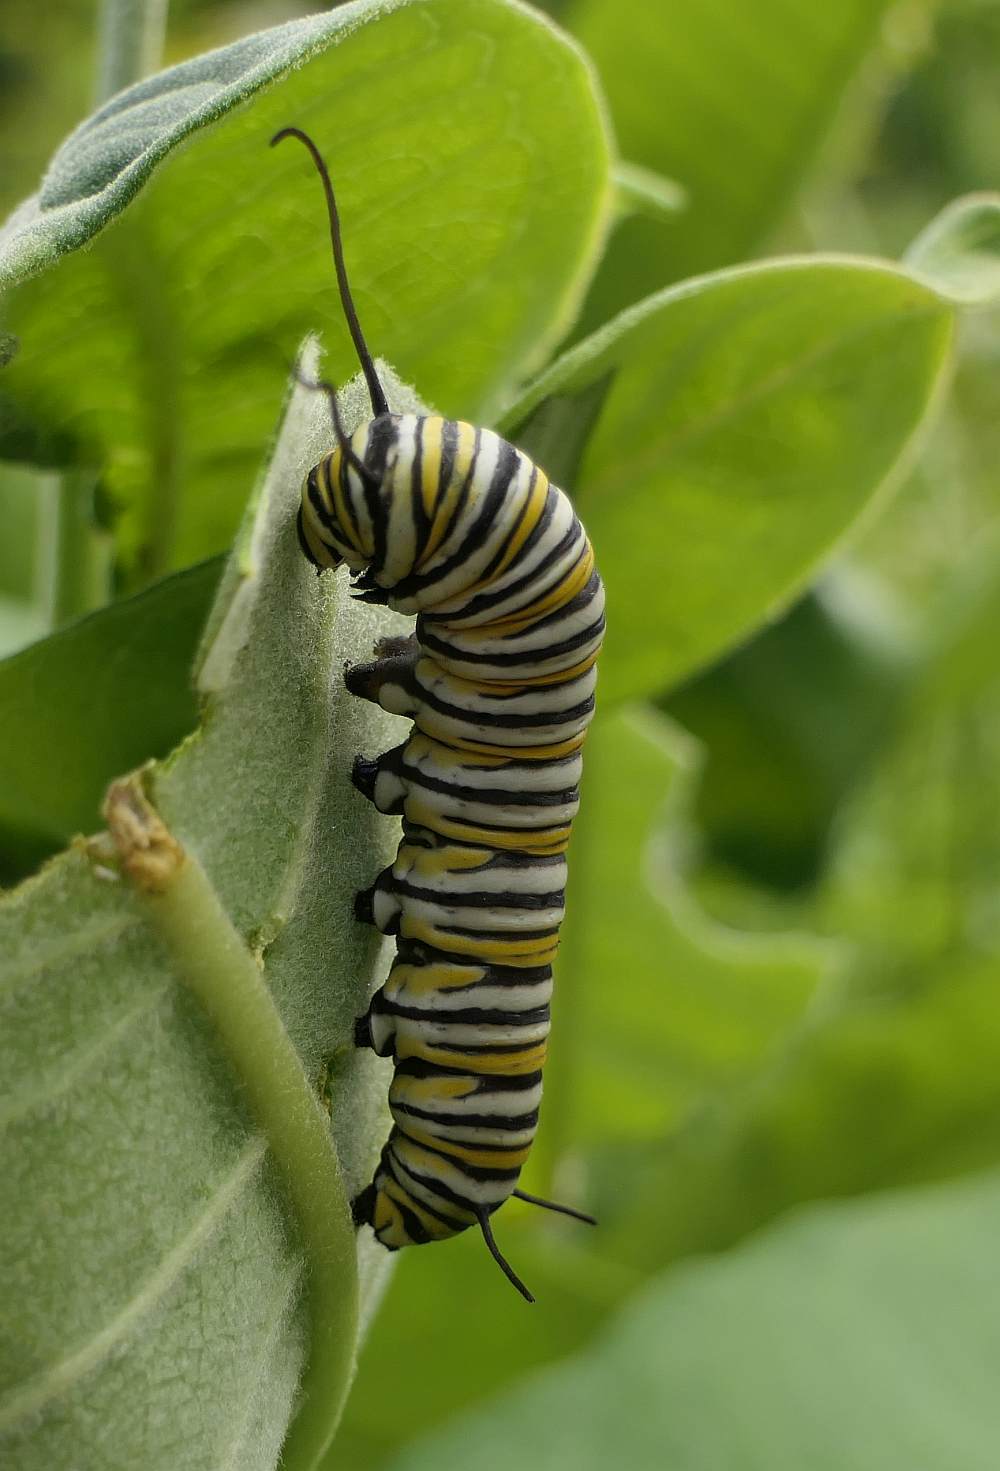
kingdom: Animalia
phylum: Arthropoda
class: Insecta
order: Lepidoptera
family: Nymphalidae
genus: Danaus
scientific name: Danaus plexippus
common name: Monarch
